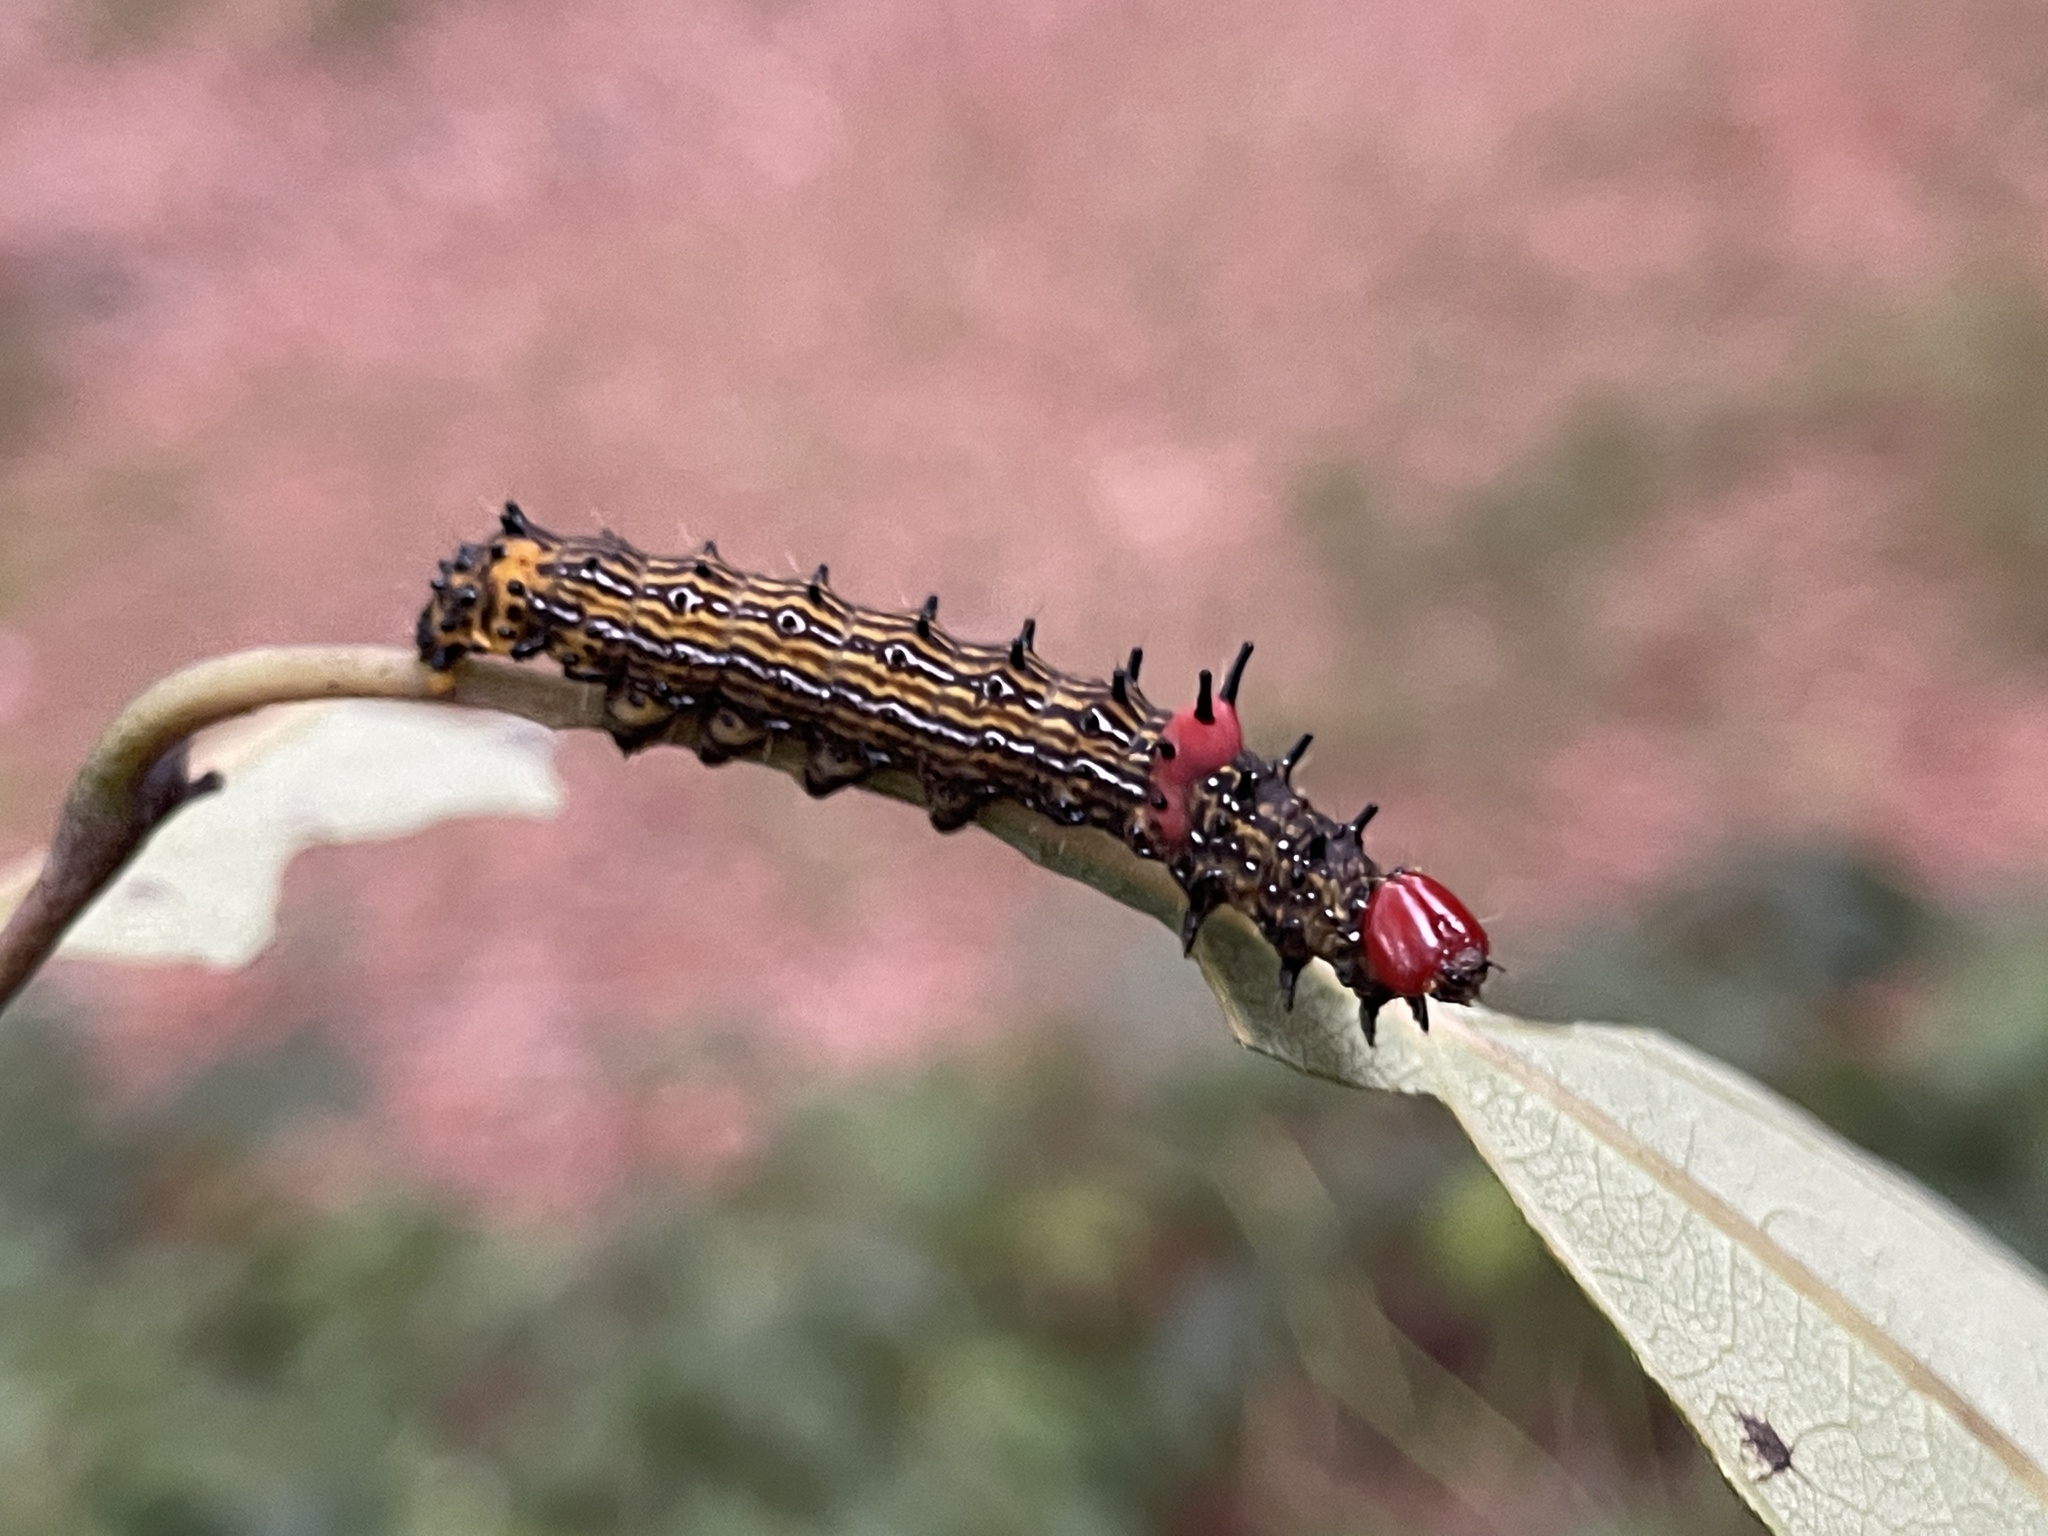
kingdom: Animalia
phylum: Arthropoda
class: Insecta
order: Lepidoptera
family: Notodontidae
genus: Schizura
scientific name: Schizura
